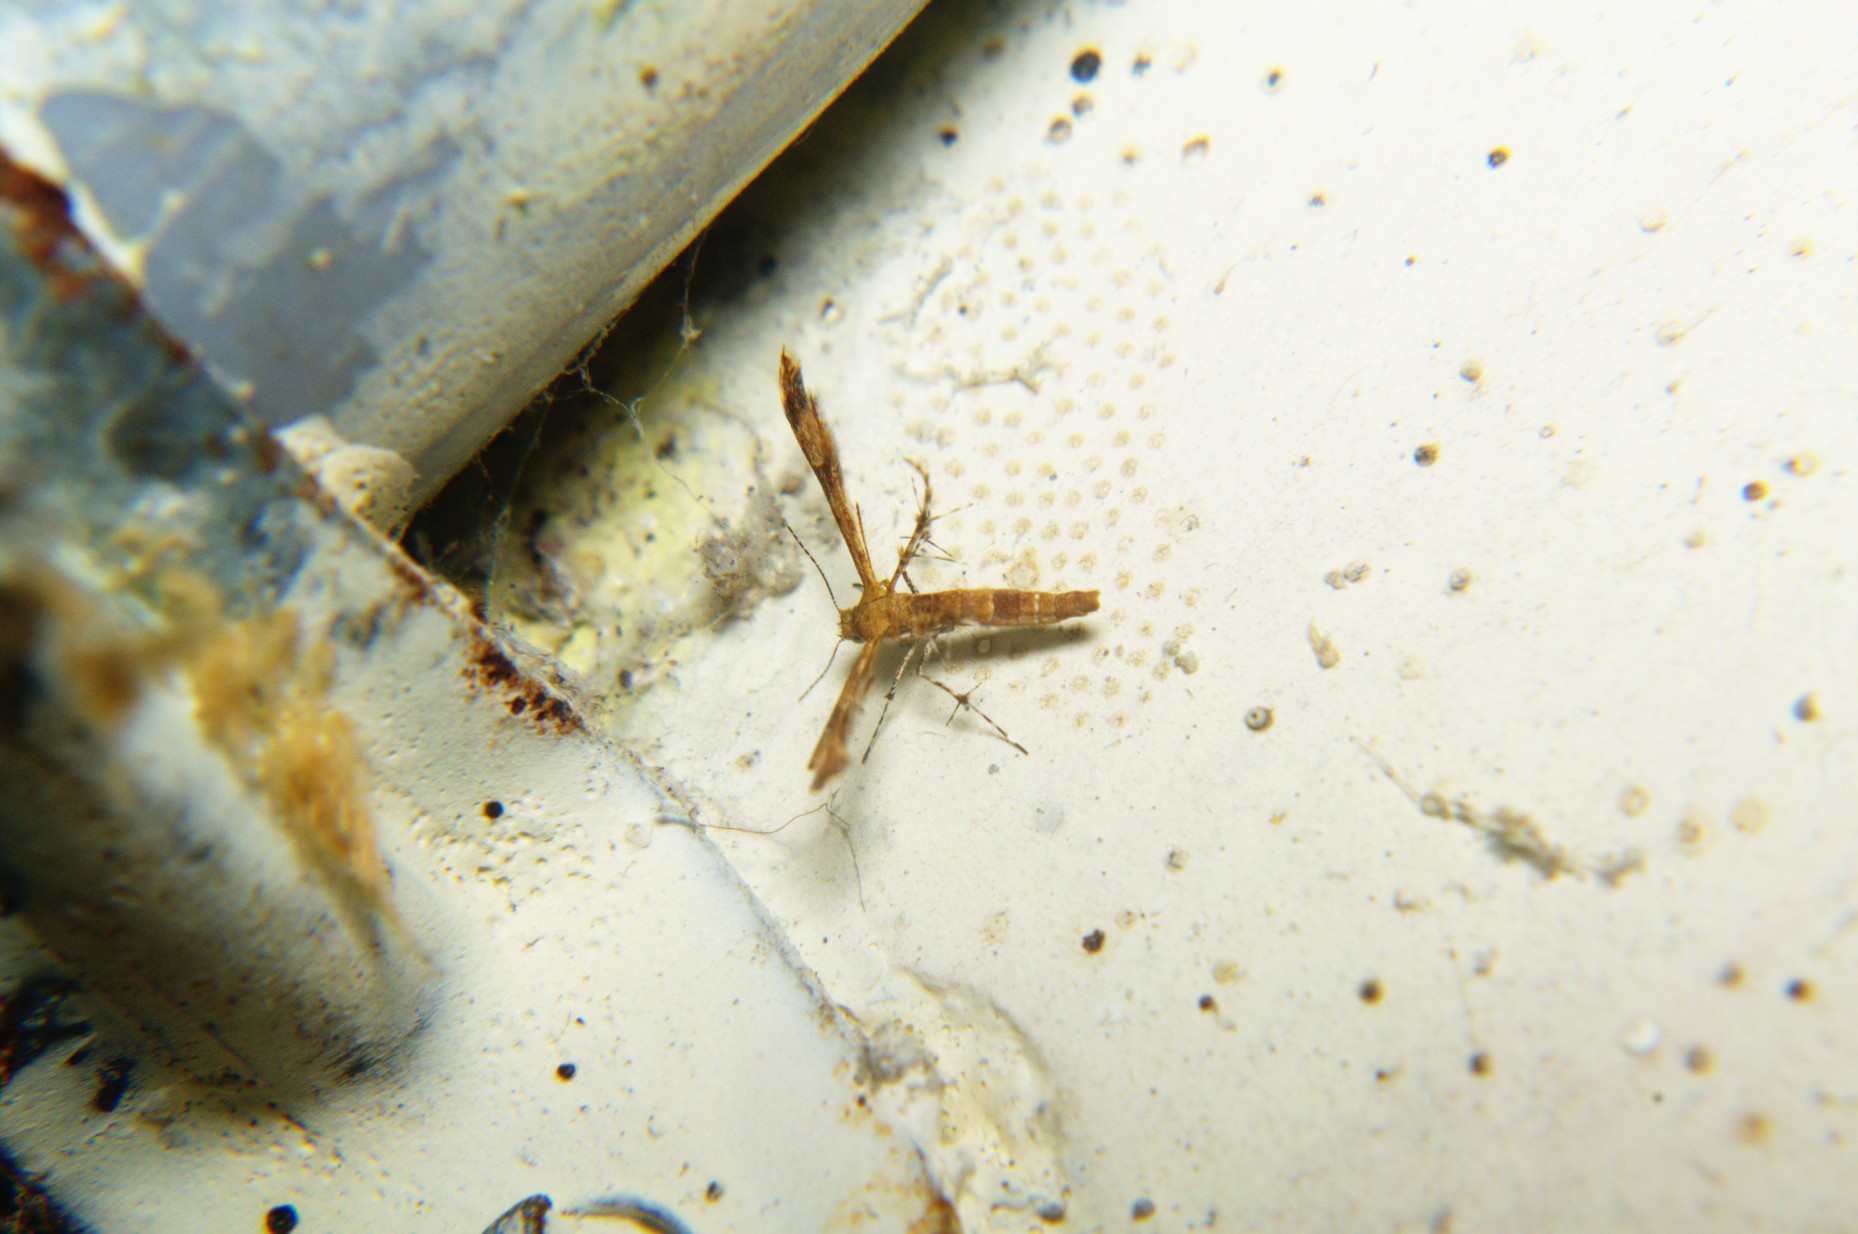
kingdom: Animalia
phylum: Arthropoda
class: Insecta
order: Lepidoptera
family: Pterophoridae
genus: Nippoptilia
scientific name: Nippoptilia cinctipedalis
